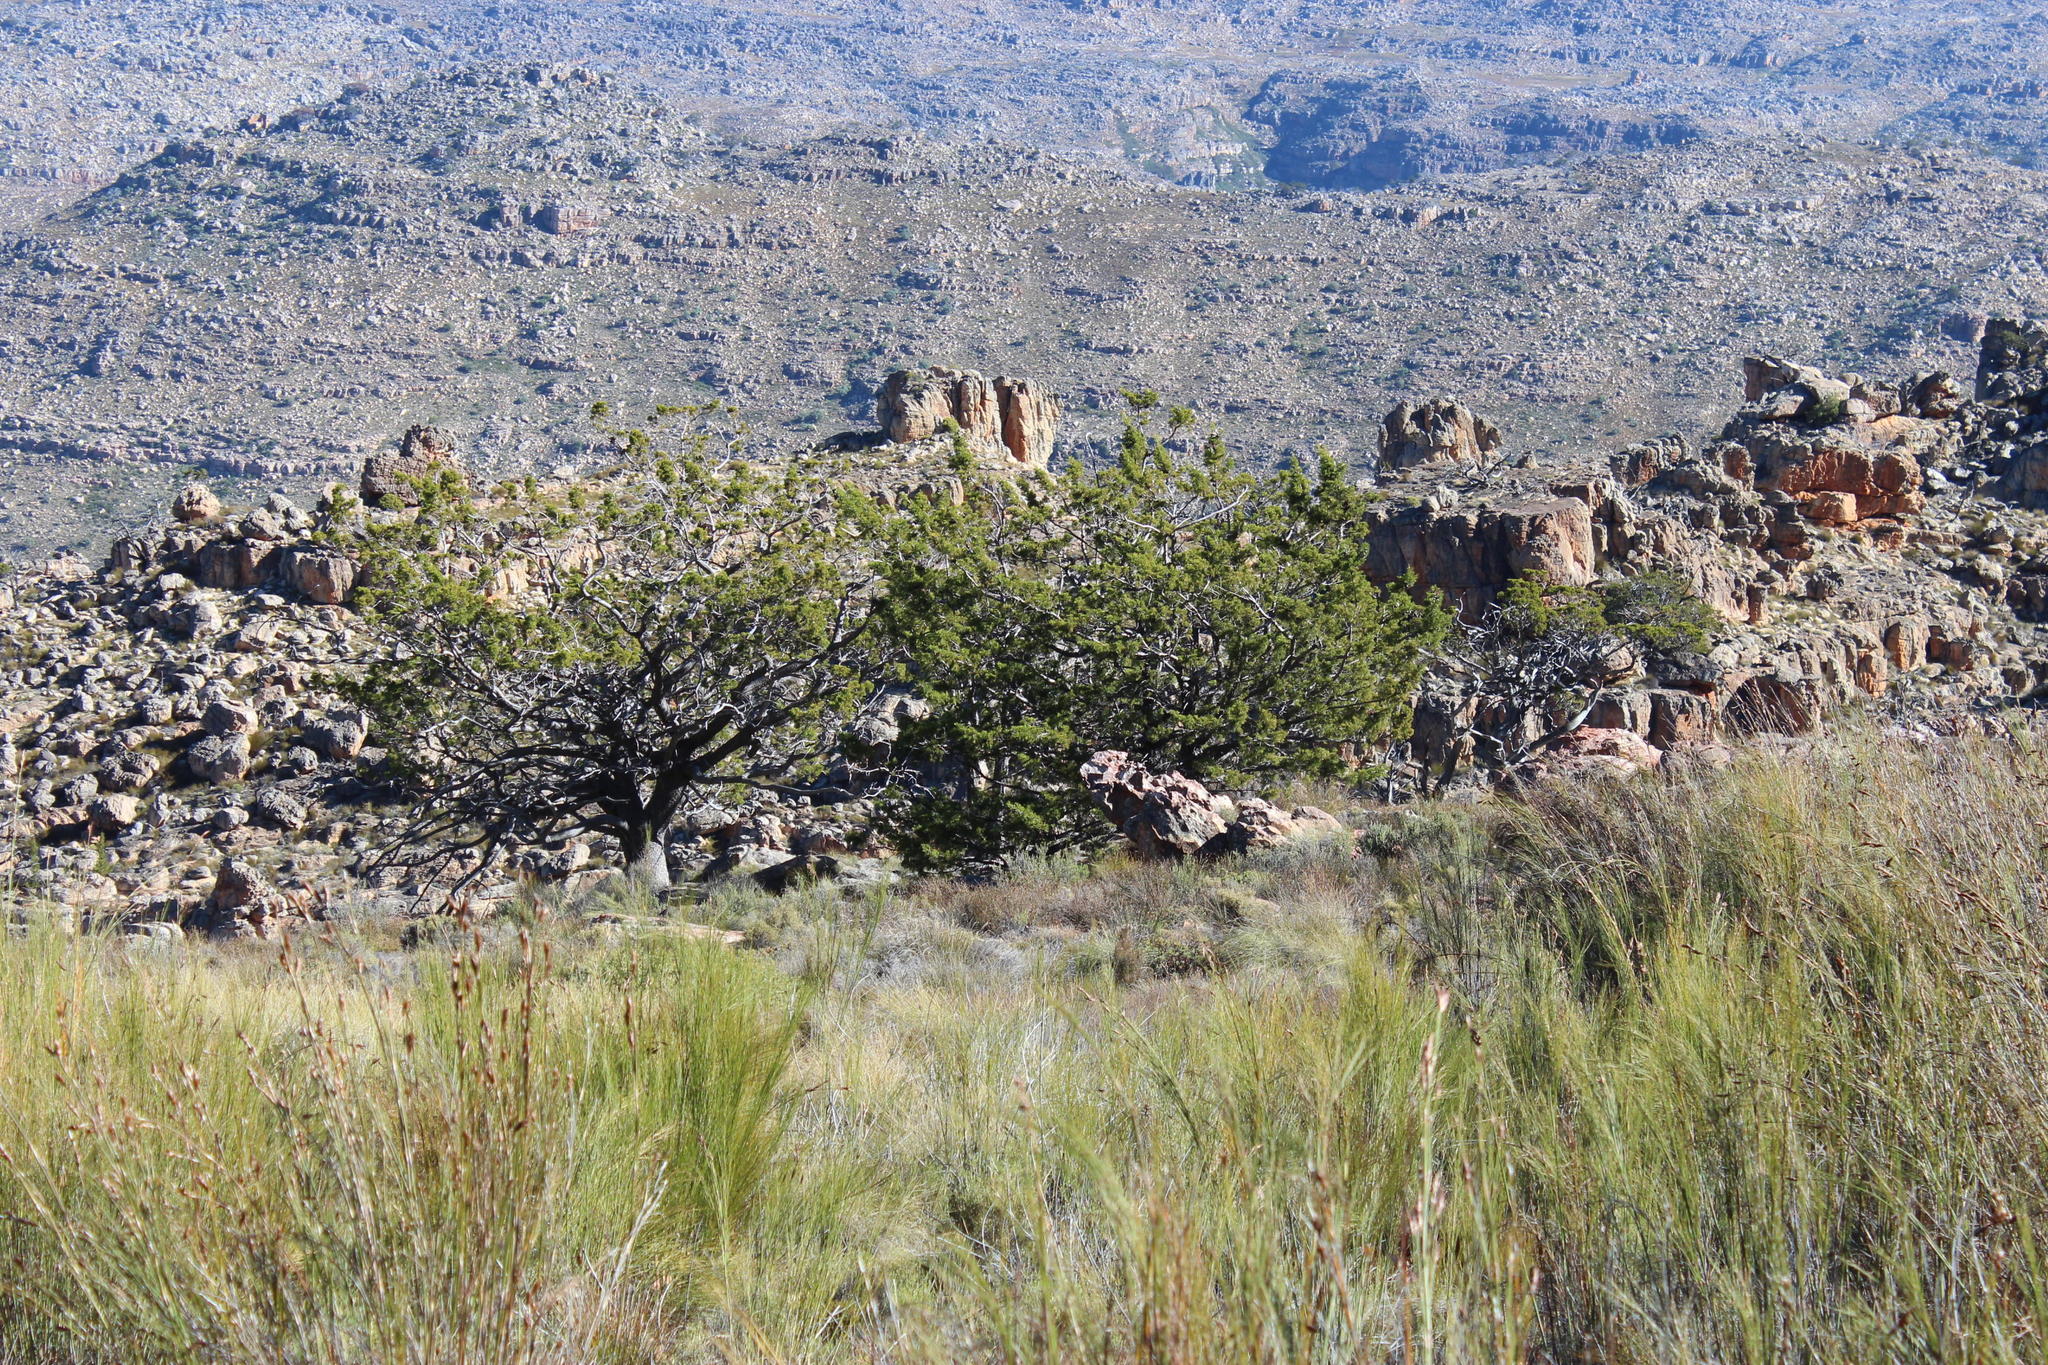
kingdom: Plantae
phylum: Tracheophyta
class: Pinopsida
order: Pinales
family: Cupressaceae
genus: Widdringtonia
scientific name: Widdringtonia nodiflora
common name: Cape cypress
